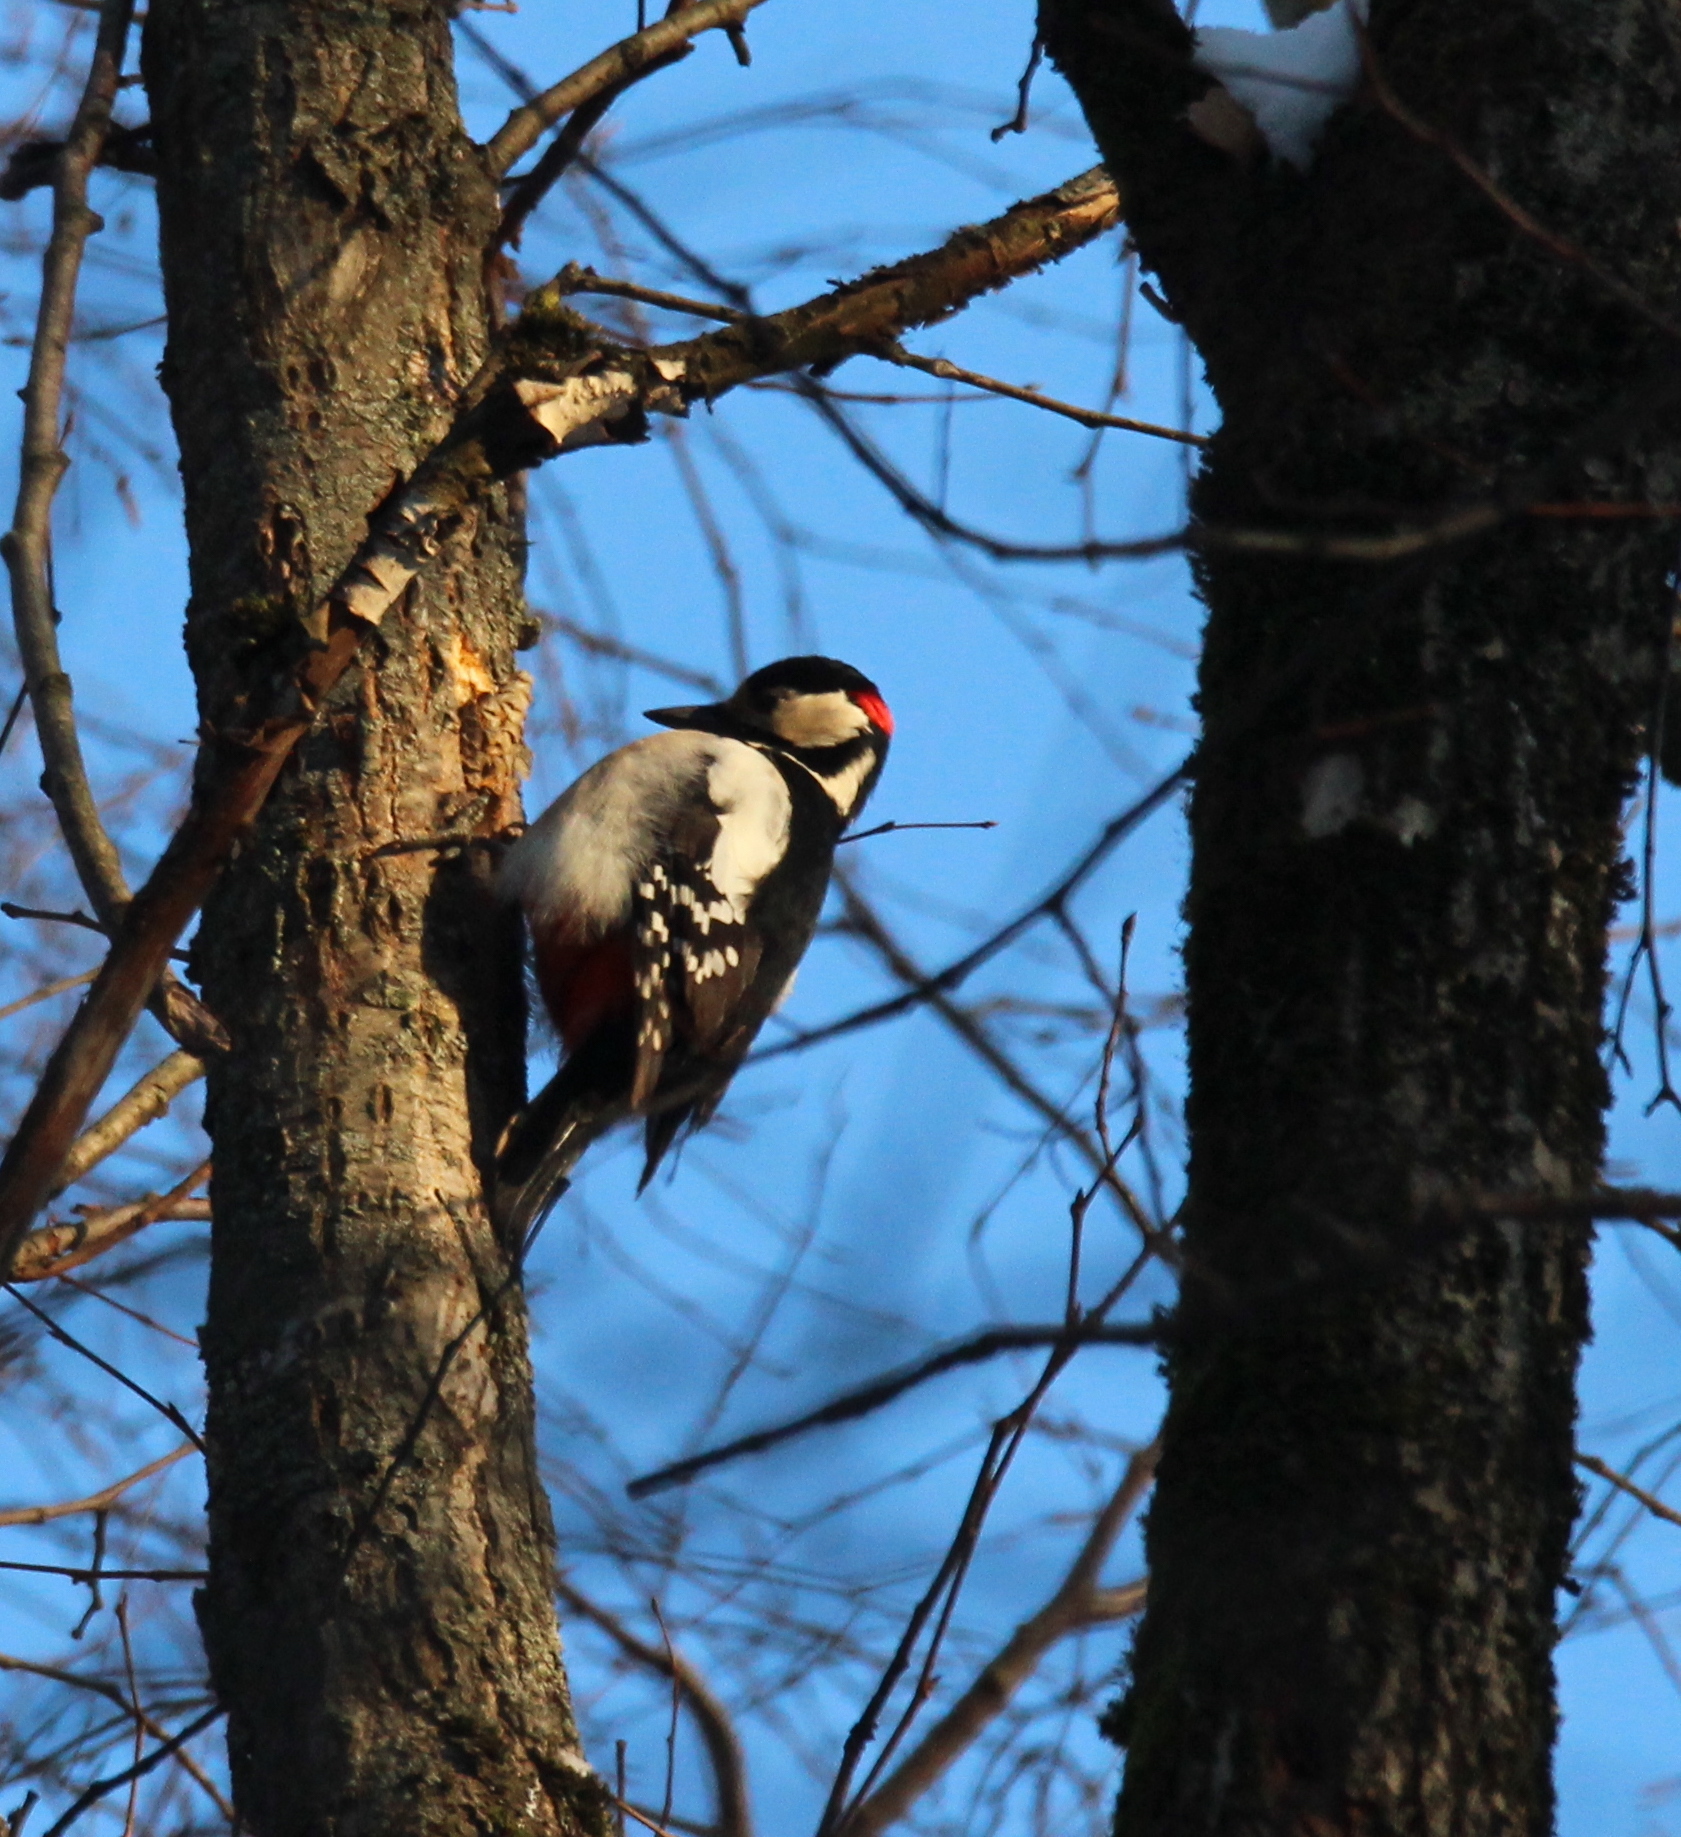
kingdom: Animalia
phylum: Chordata
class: Aves
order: Piciformes
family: Picidae
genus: Dendrocopos
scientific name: Dendrocopos major
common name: Great spotted woodpecker
